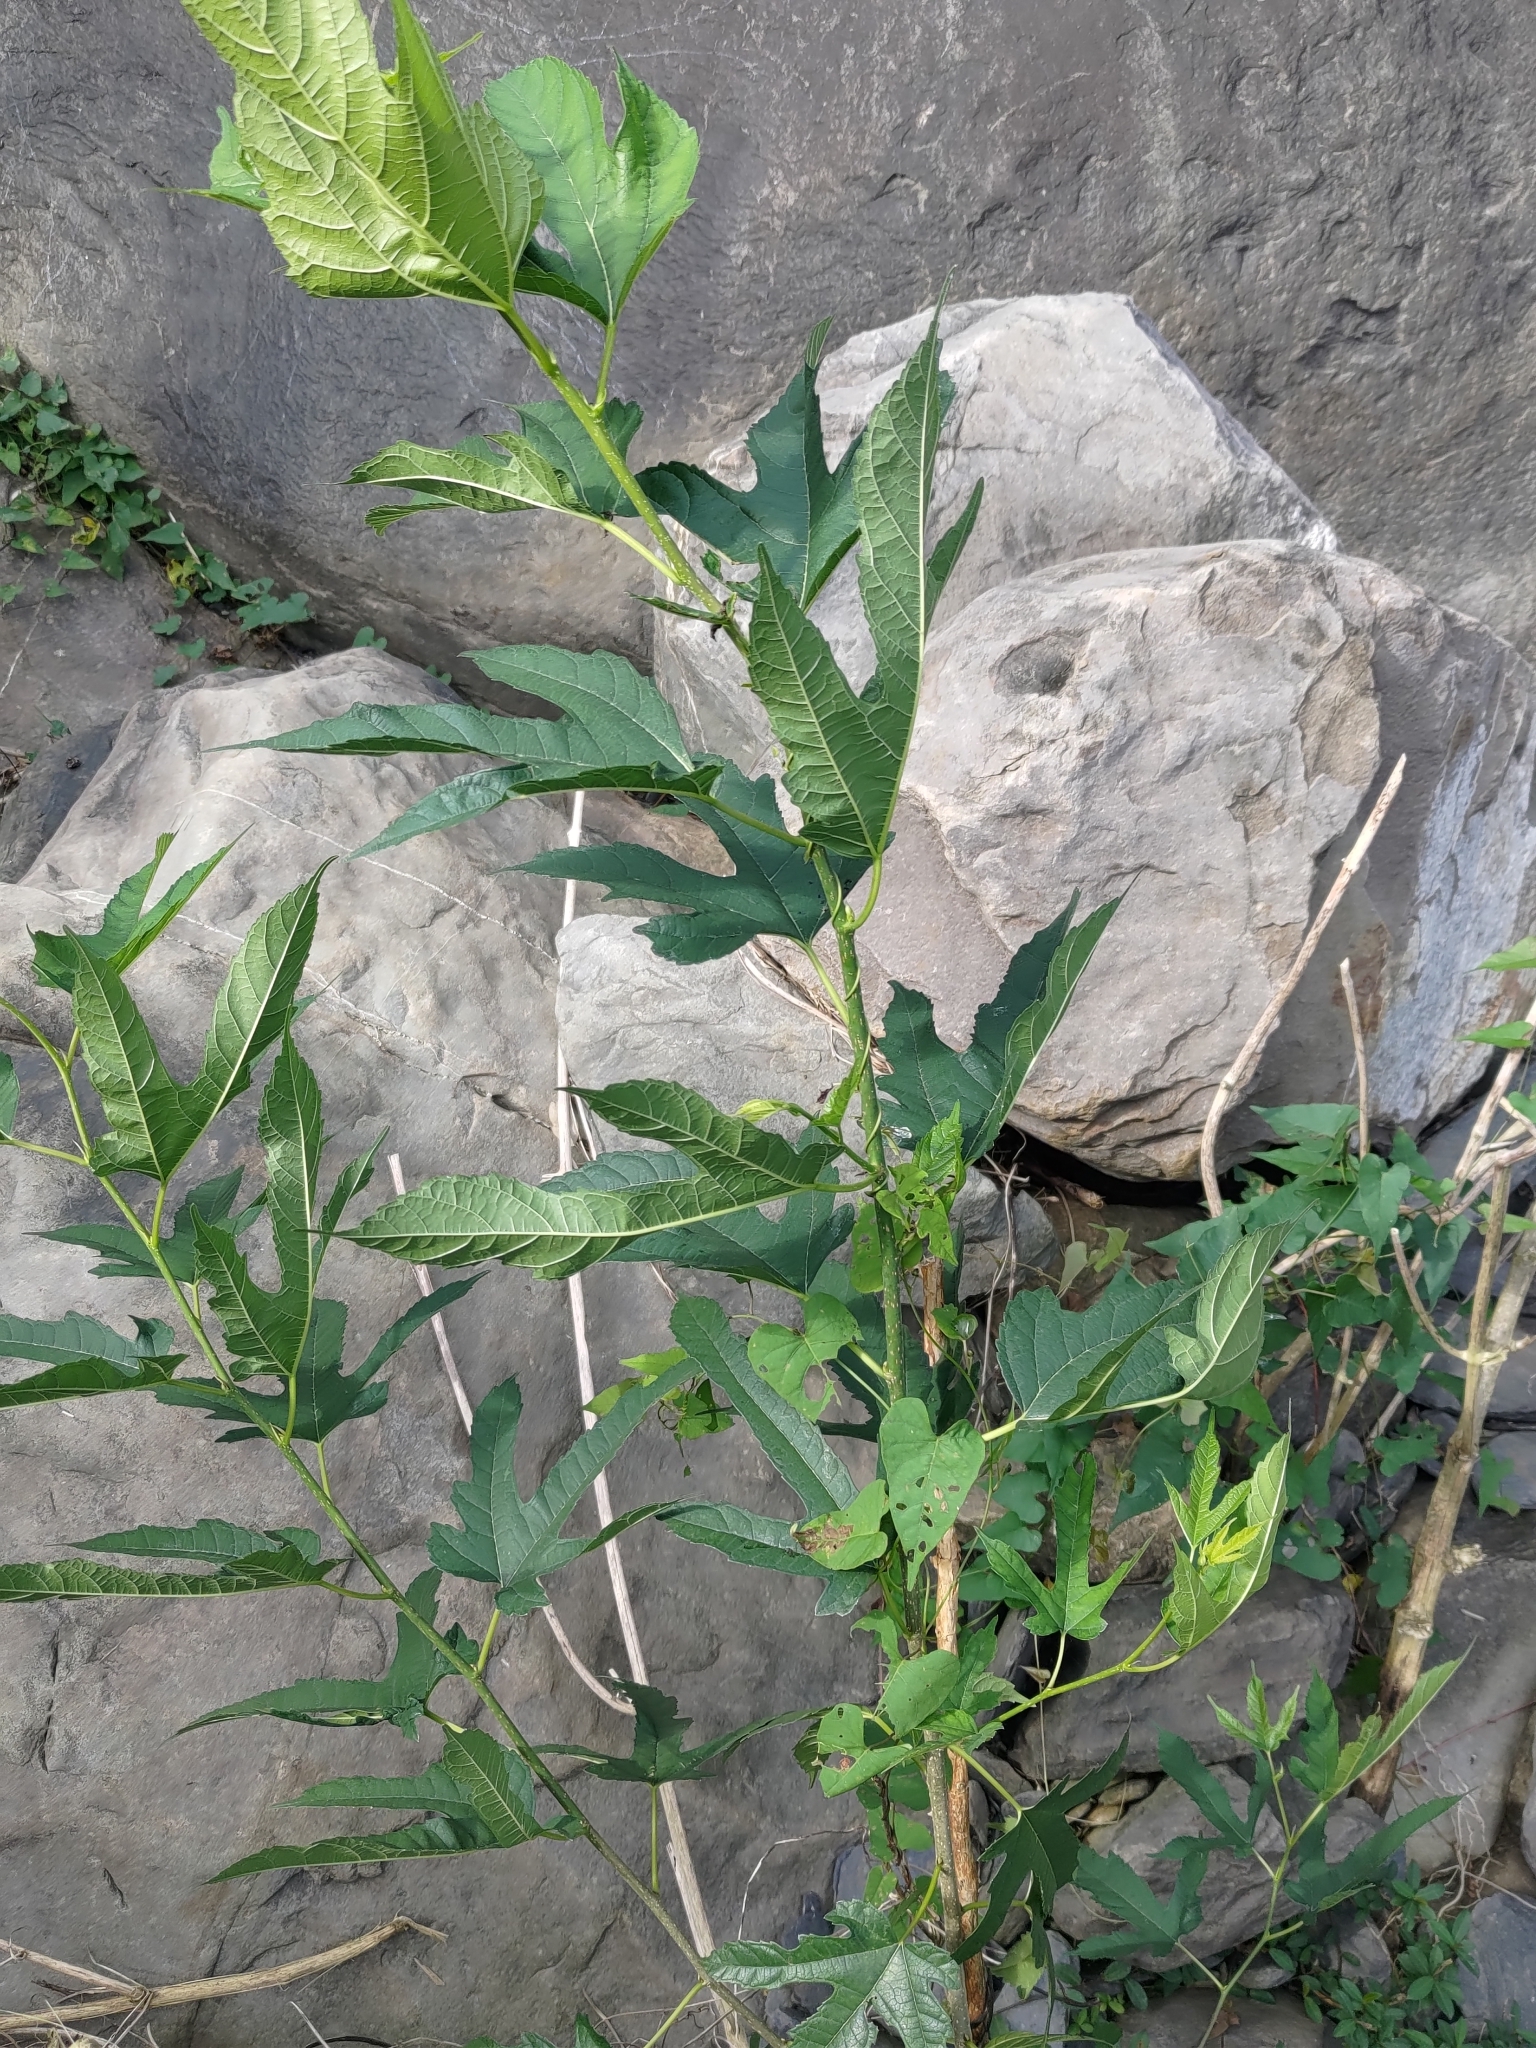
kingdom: Plantae
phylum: Tracheophyta
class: Magnoliopsida
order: Rosales
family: Moraceae
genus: Morus
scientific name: Morus indica
